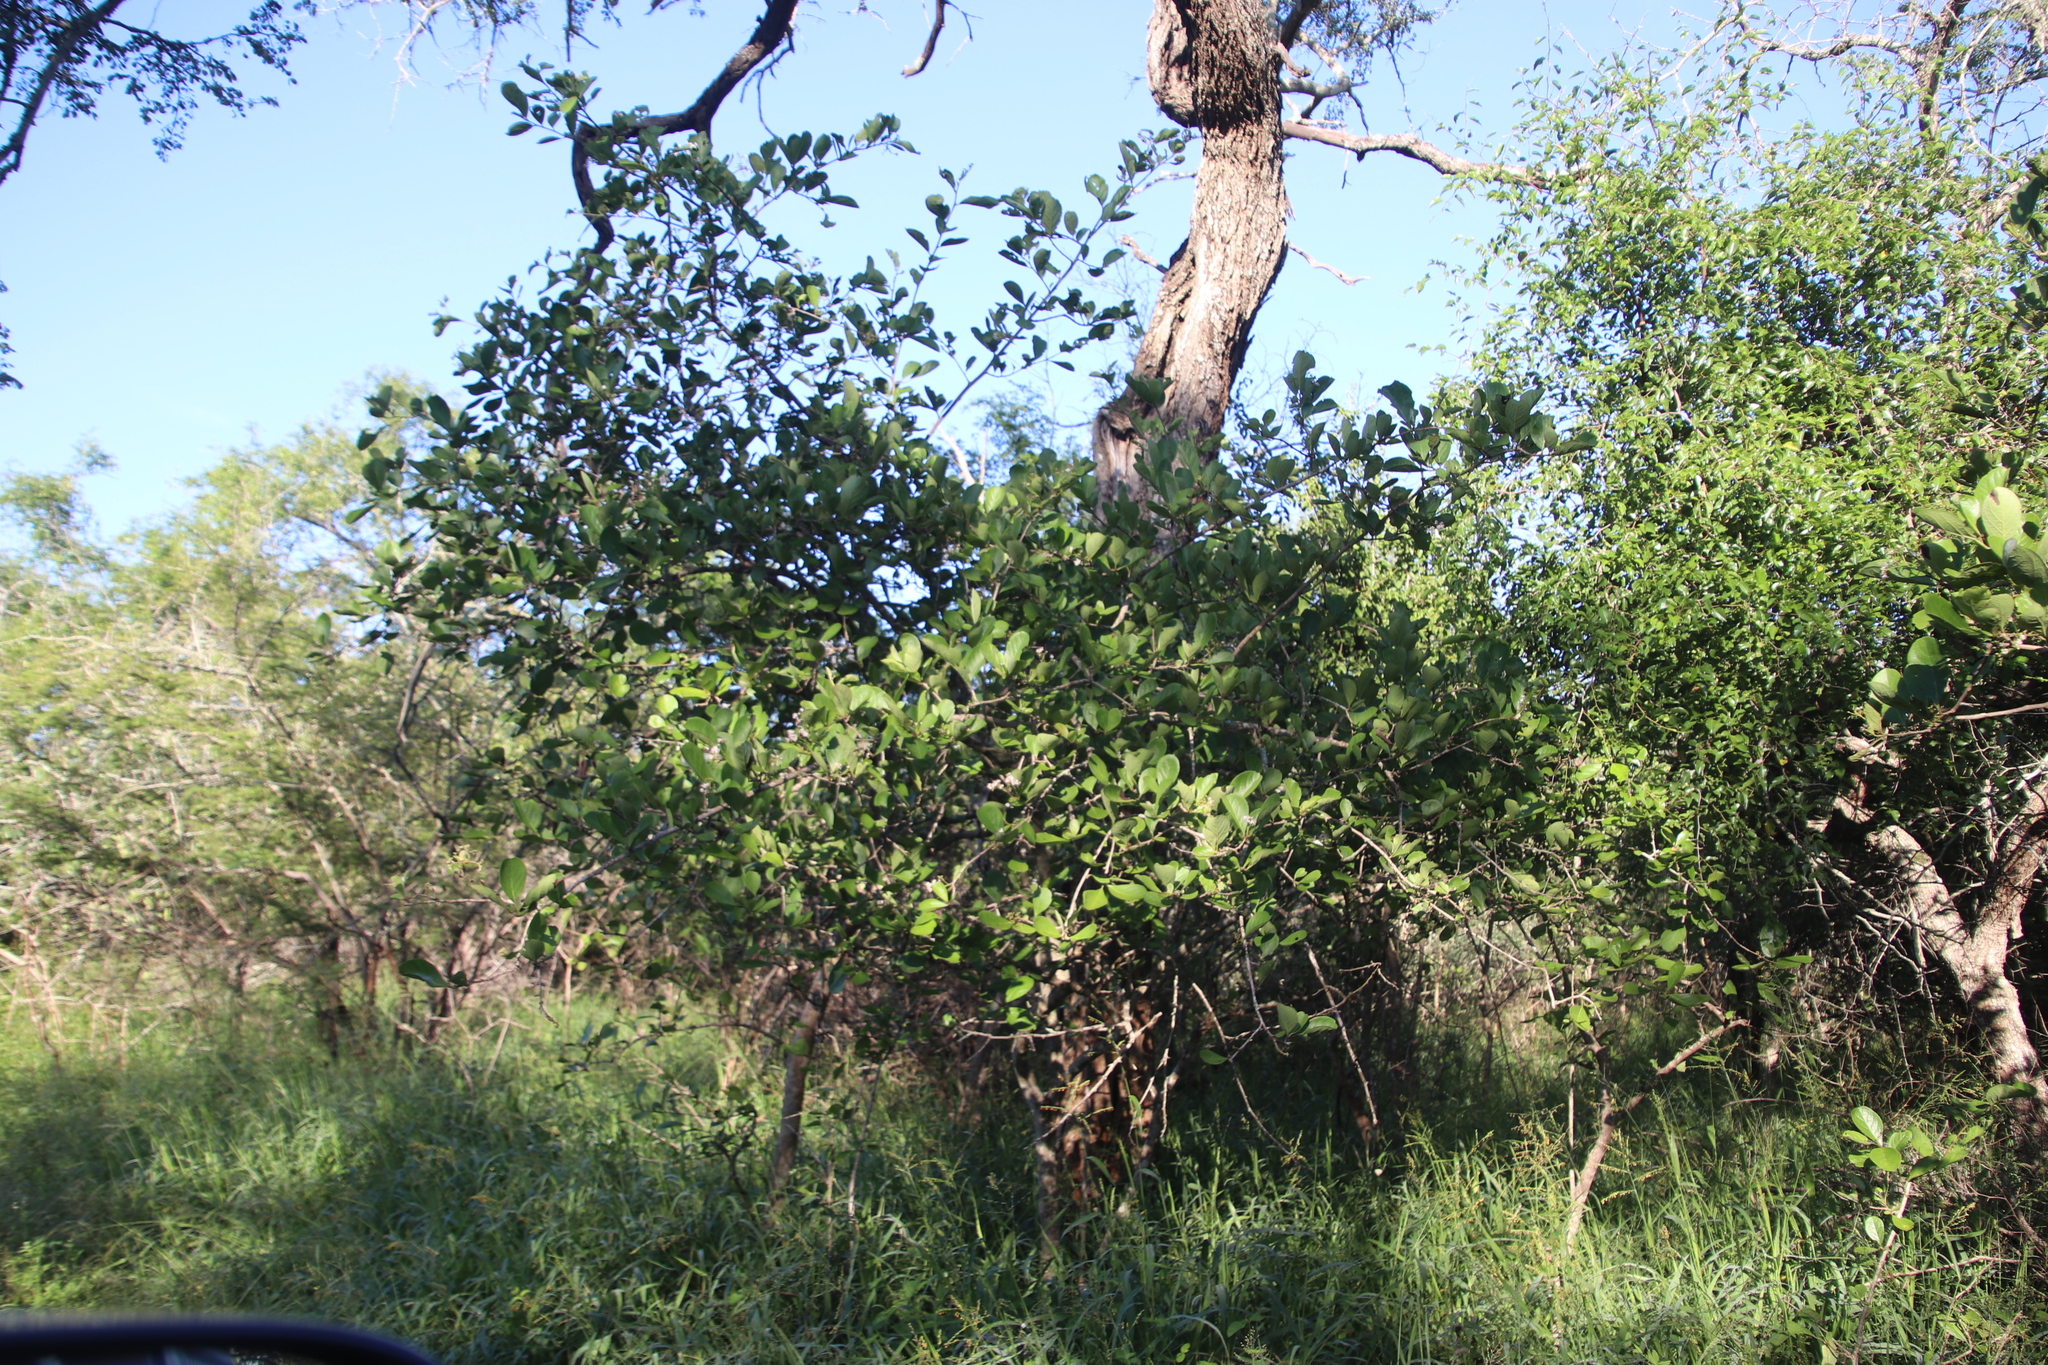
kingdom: Plantae
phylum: Tracheophyta
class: Magnoliopsida
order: Boraginales
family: Ehretiaceae
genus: Ehretia
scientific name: Ehretia amoena
